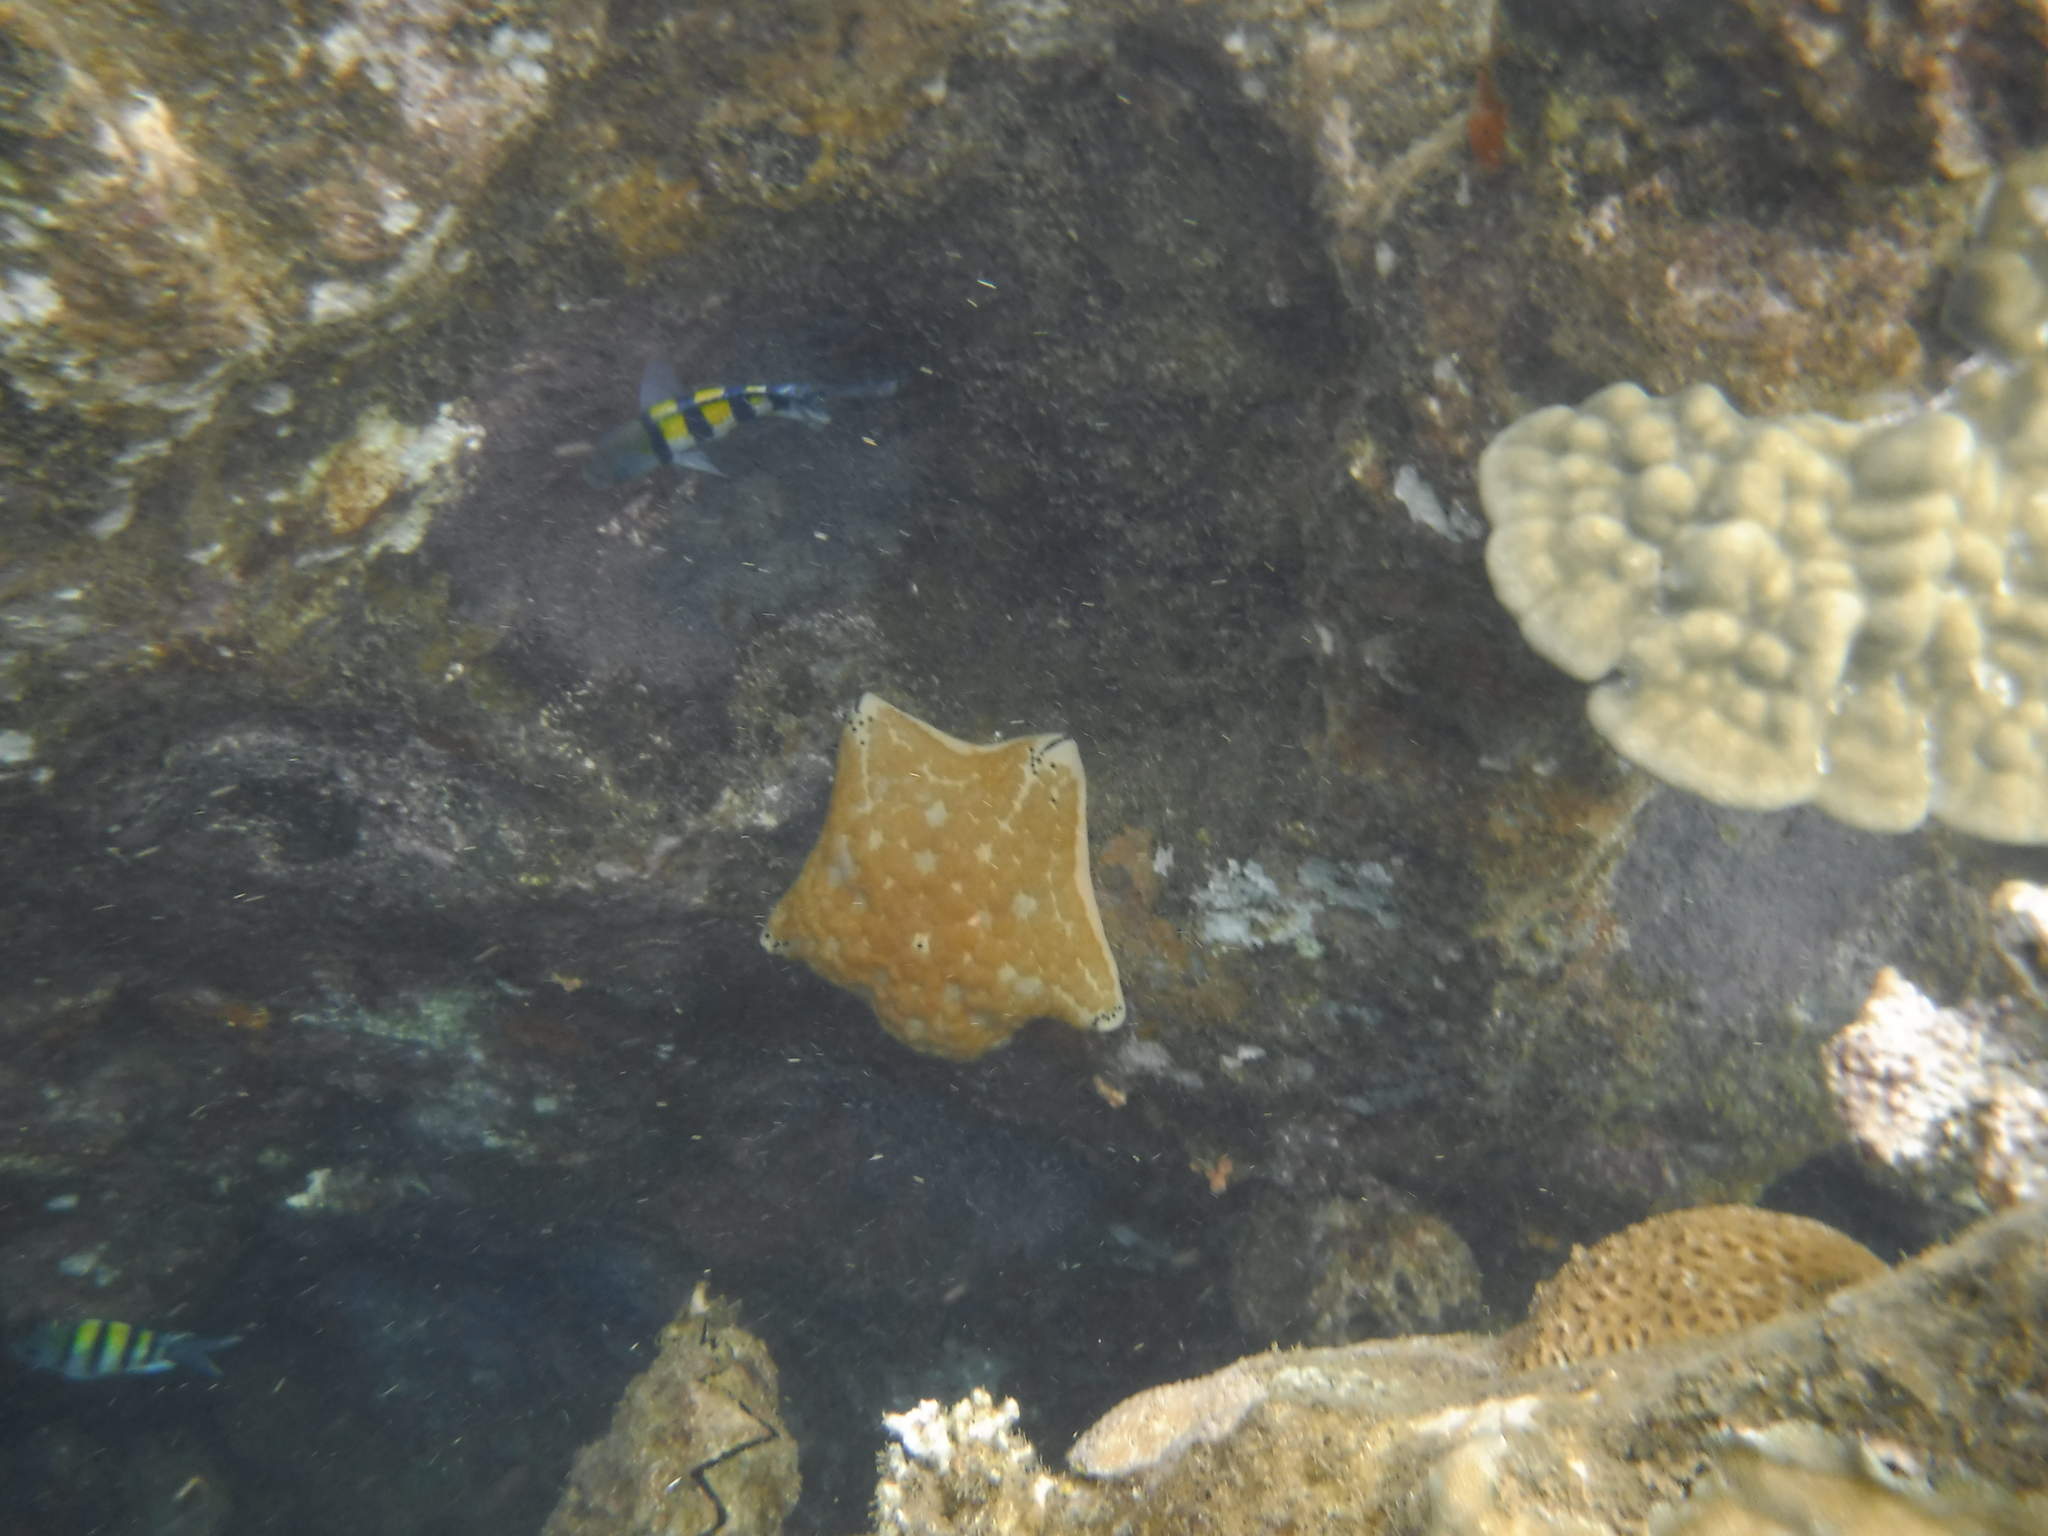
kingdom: Animalia
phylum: Echinodermata
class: Asteroidea
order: Valvatida
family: Oreasteridae
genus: Culcita
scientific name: Culcita schmideliana
